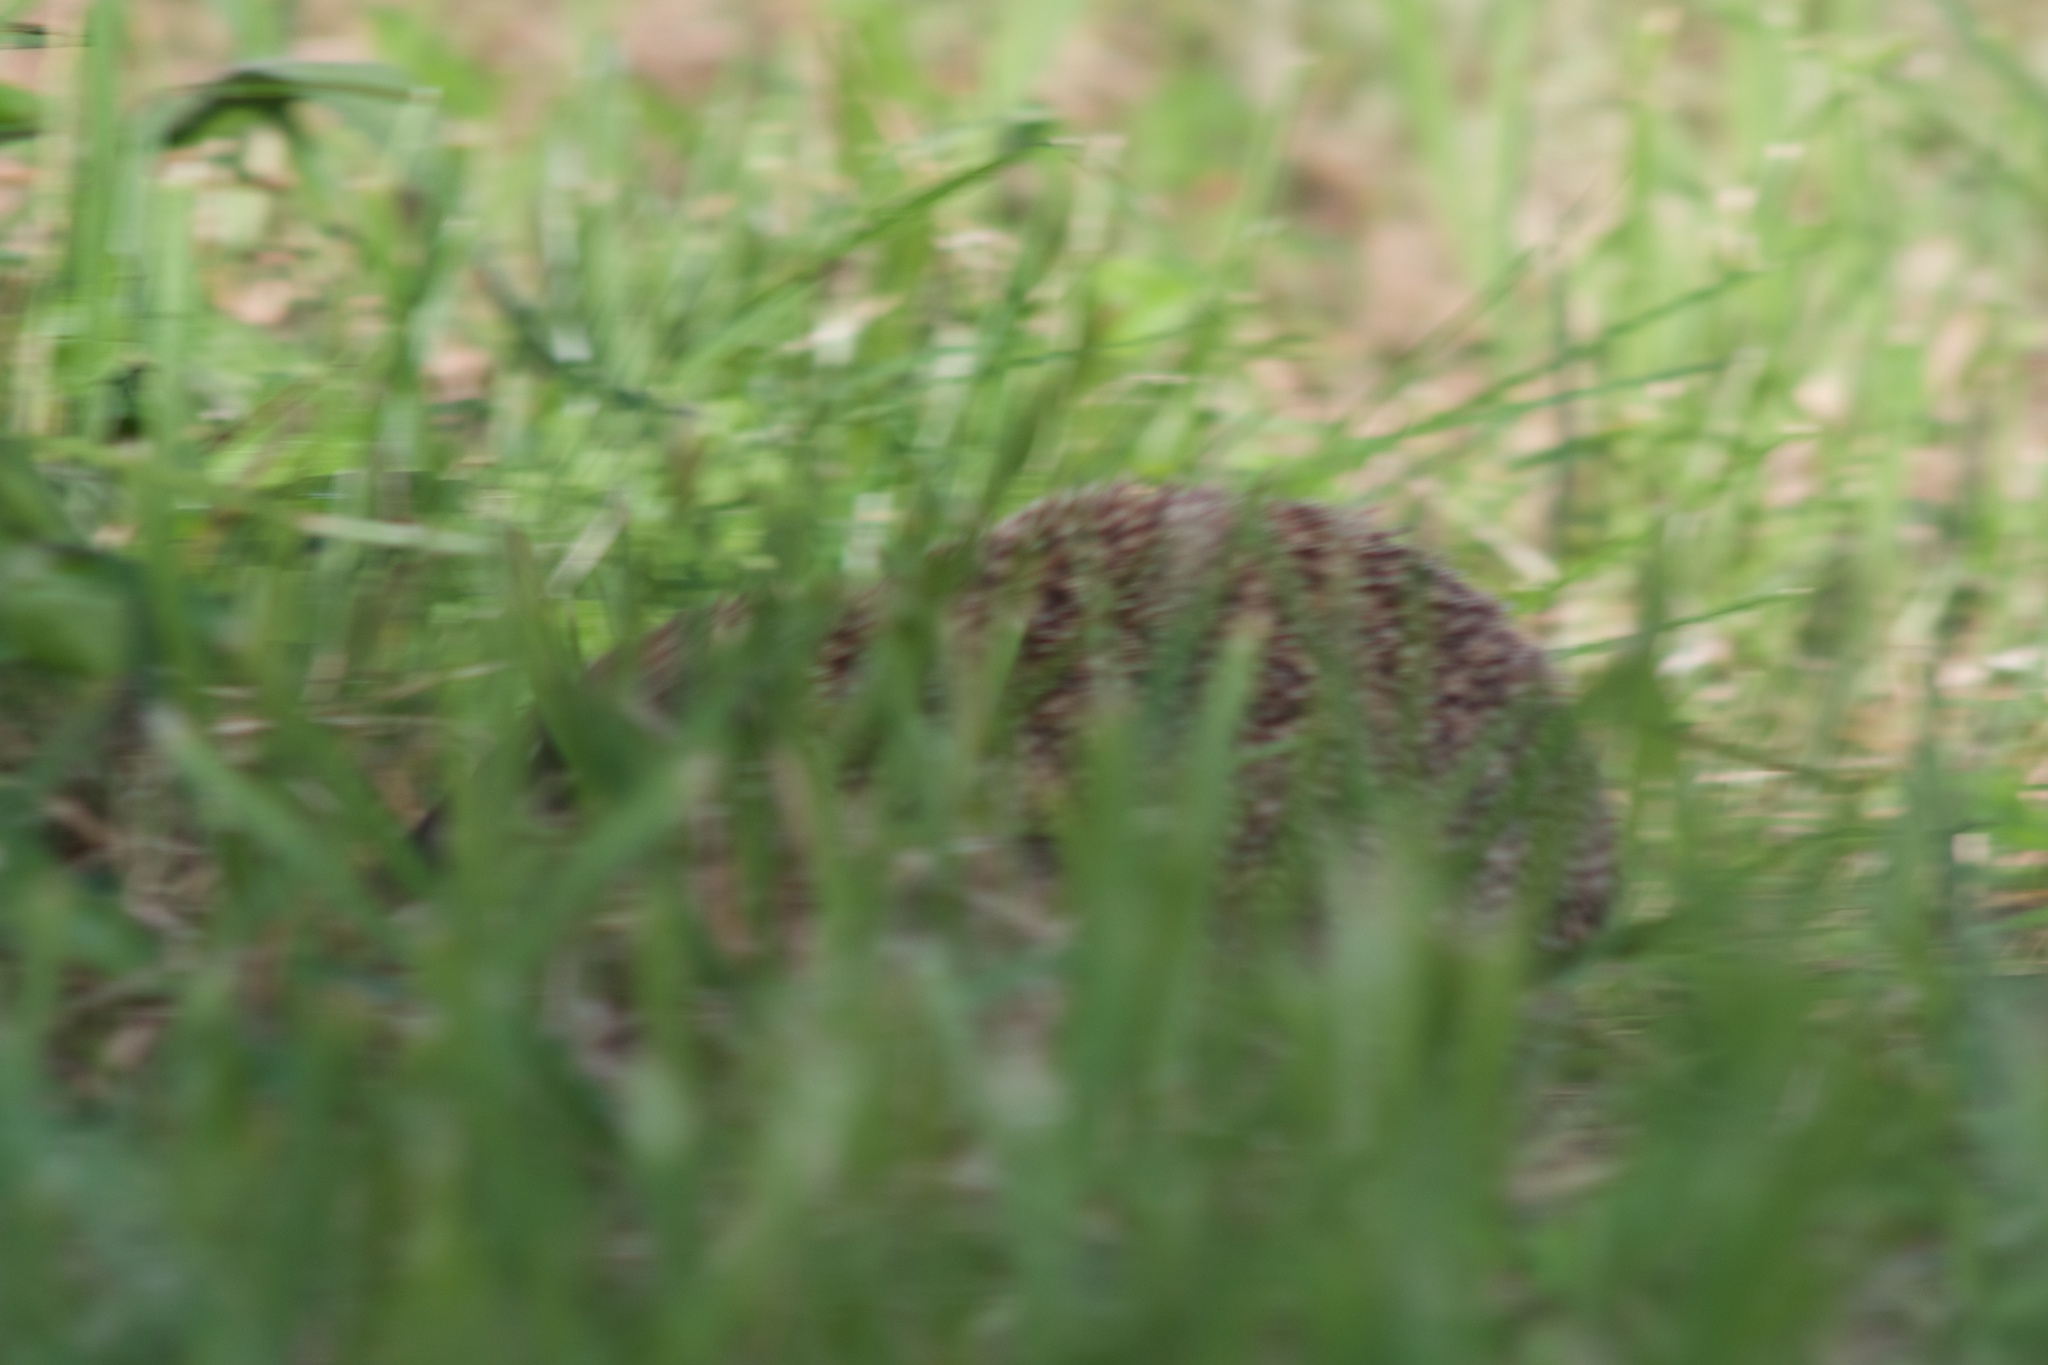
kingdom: Animalia
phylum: Chordata
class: Mammalia
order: Erinaceomorpha
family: Erinaceidae
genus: Erinaceus
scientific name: Erinaceus europaeus
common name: West european hedgehog
